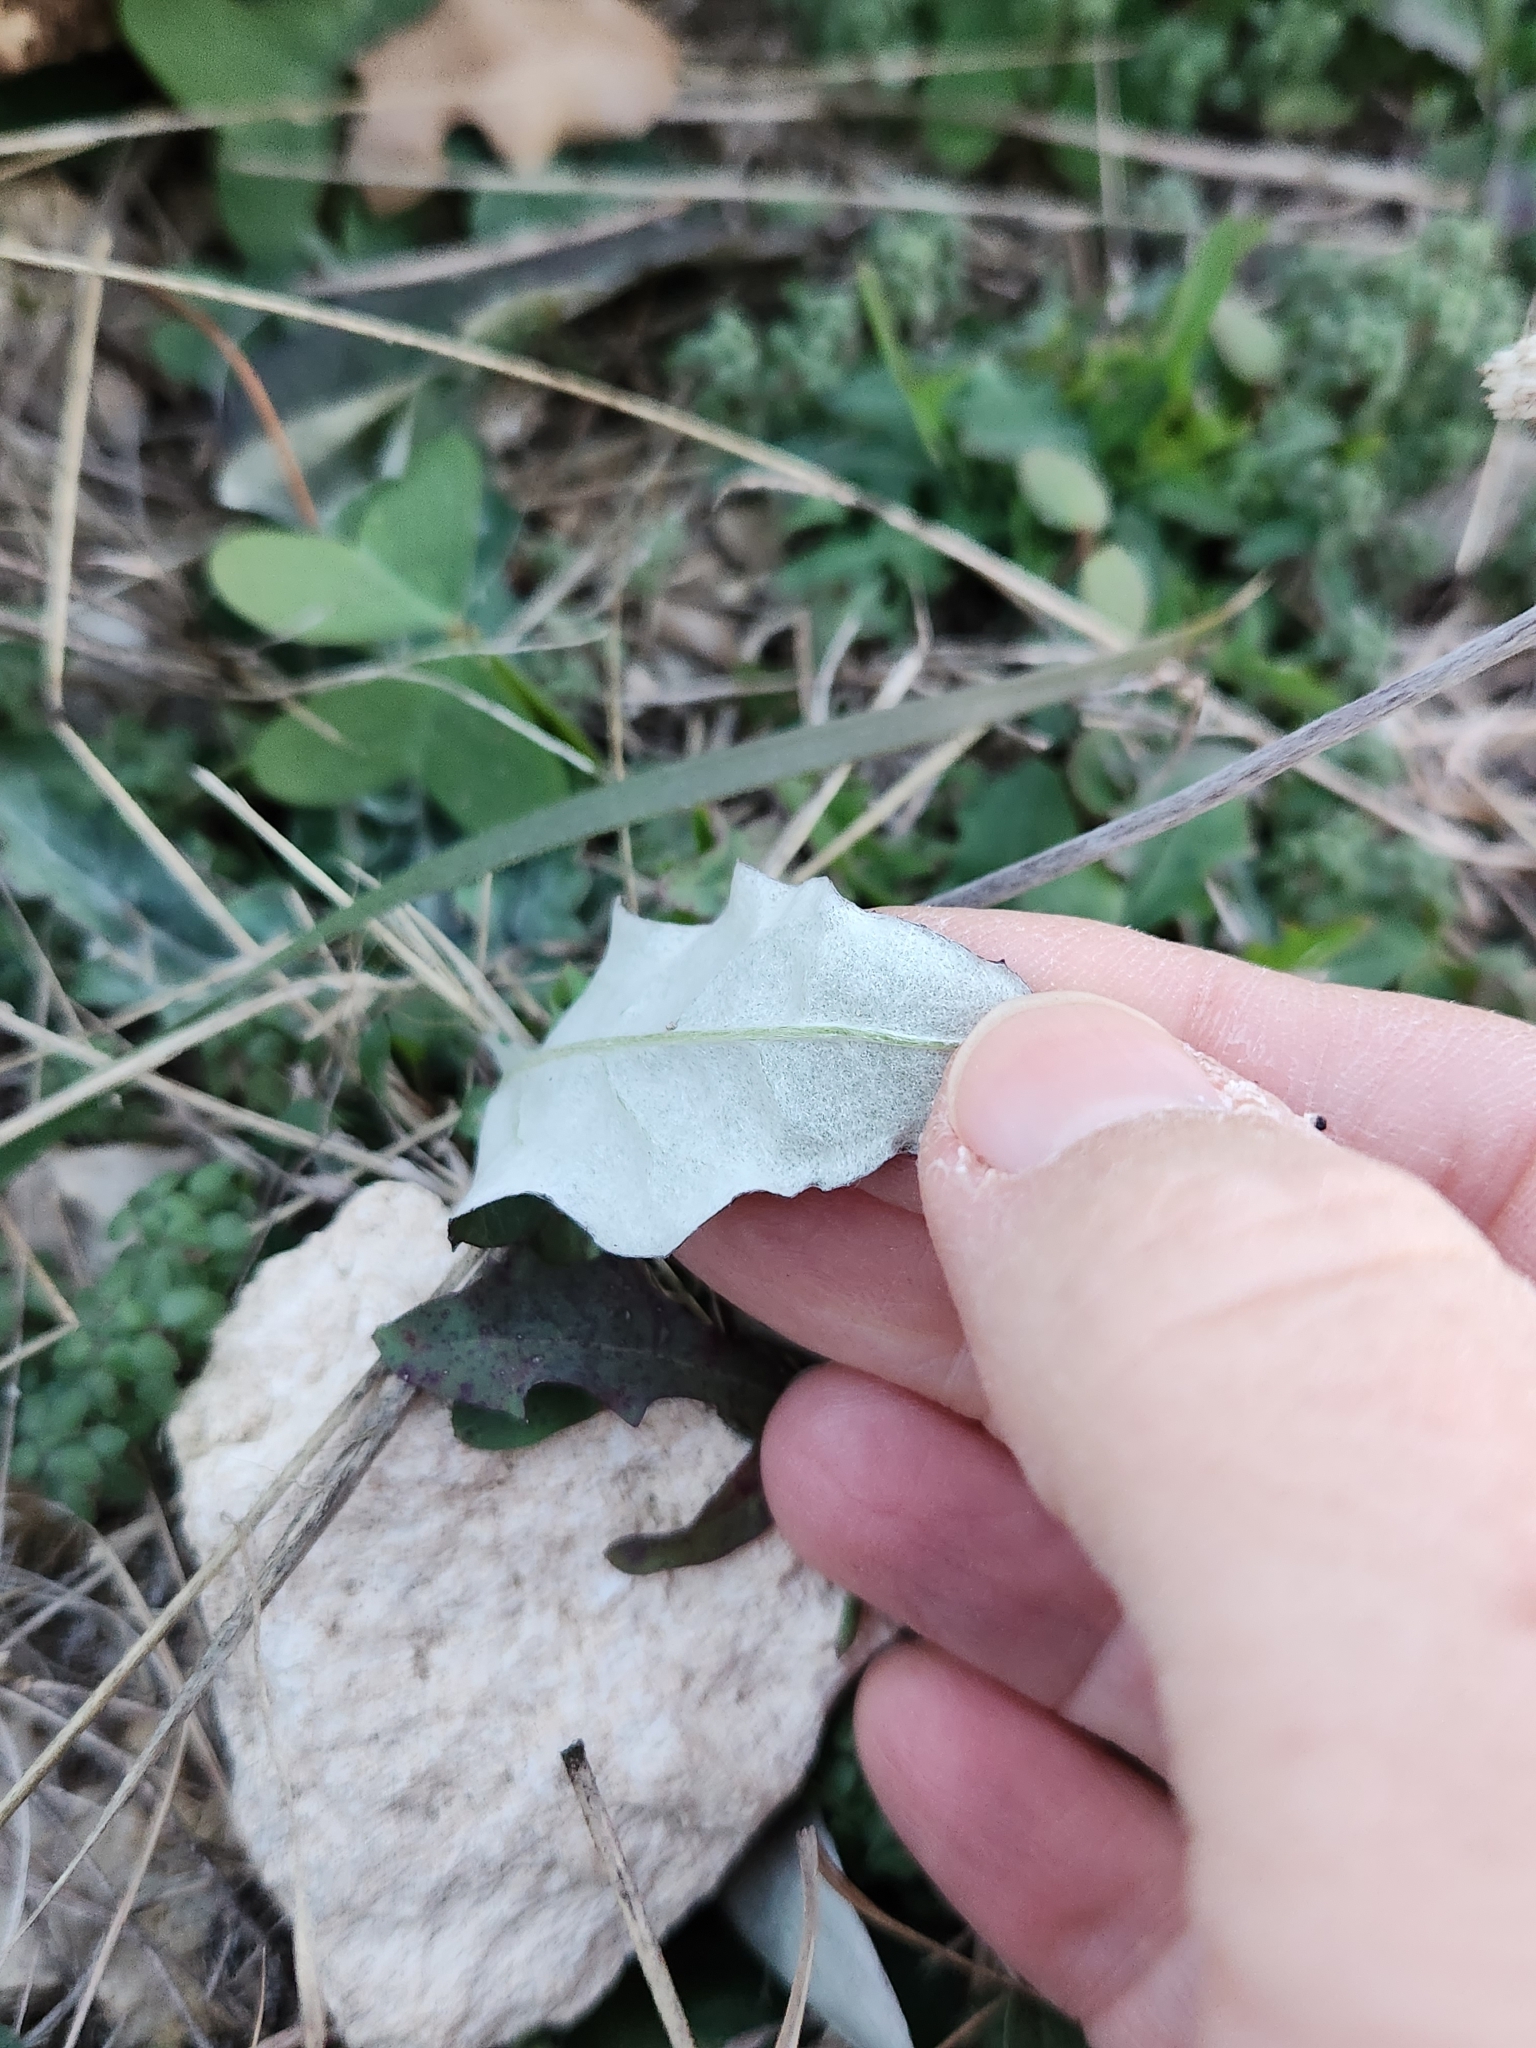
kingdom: Plantae
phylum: Tracheophyta
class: Magnoliopsida
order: Asterales
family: Asteraceae
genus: Chaptalia
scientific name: Chaptalia texana
